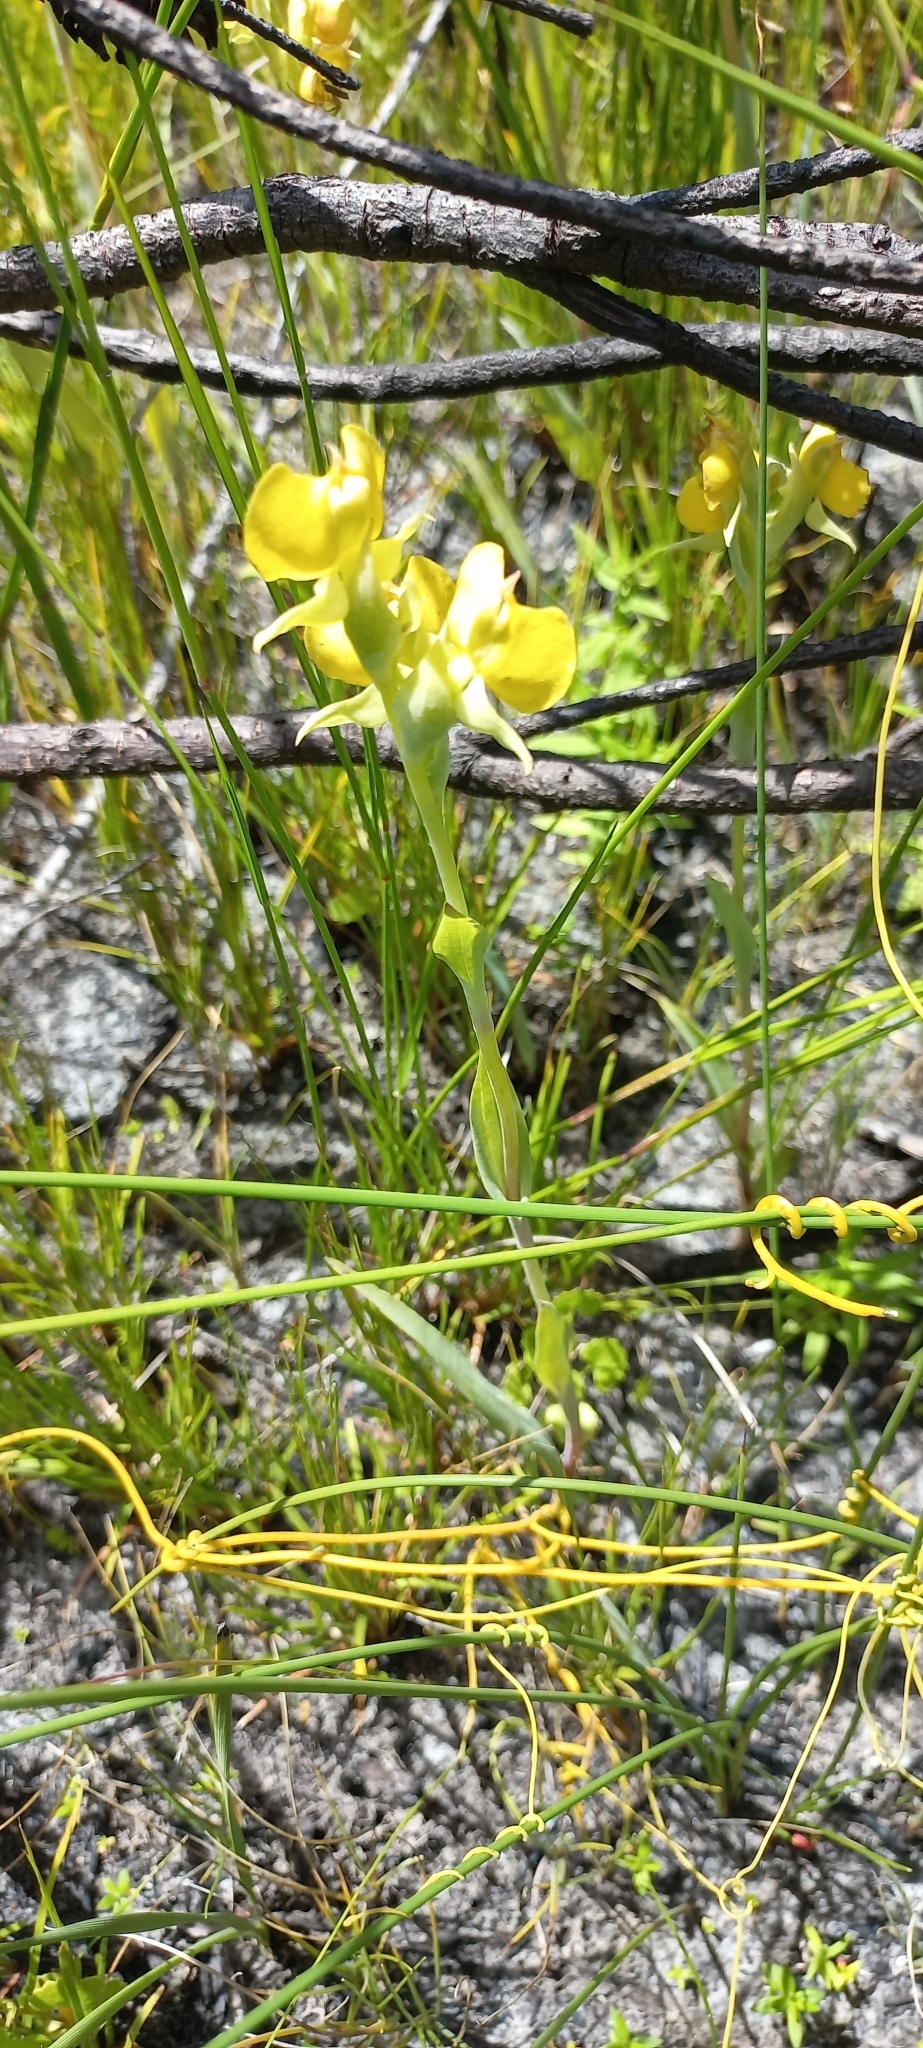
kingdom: Plantae
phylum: Tracheophyta
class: Liliopsida
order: Asparagales
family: Orchidaceae
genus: Pterygodium
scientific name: Pterygodium acutifolium
